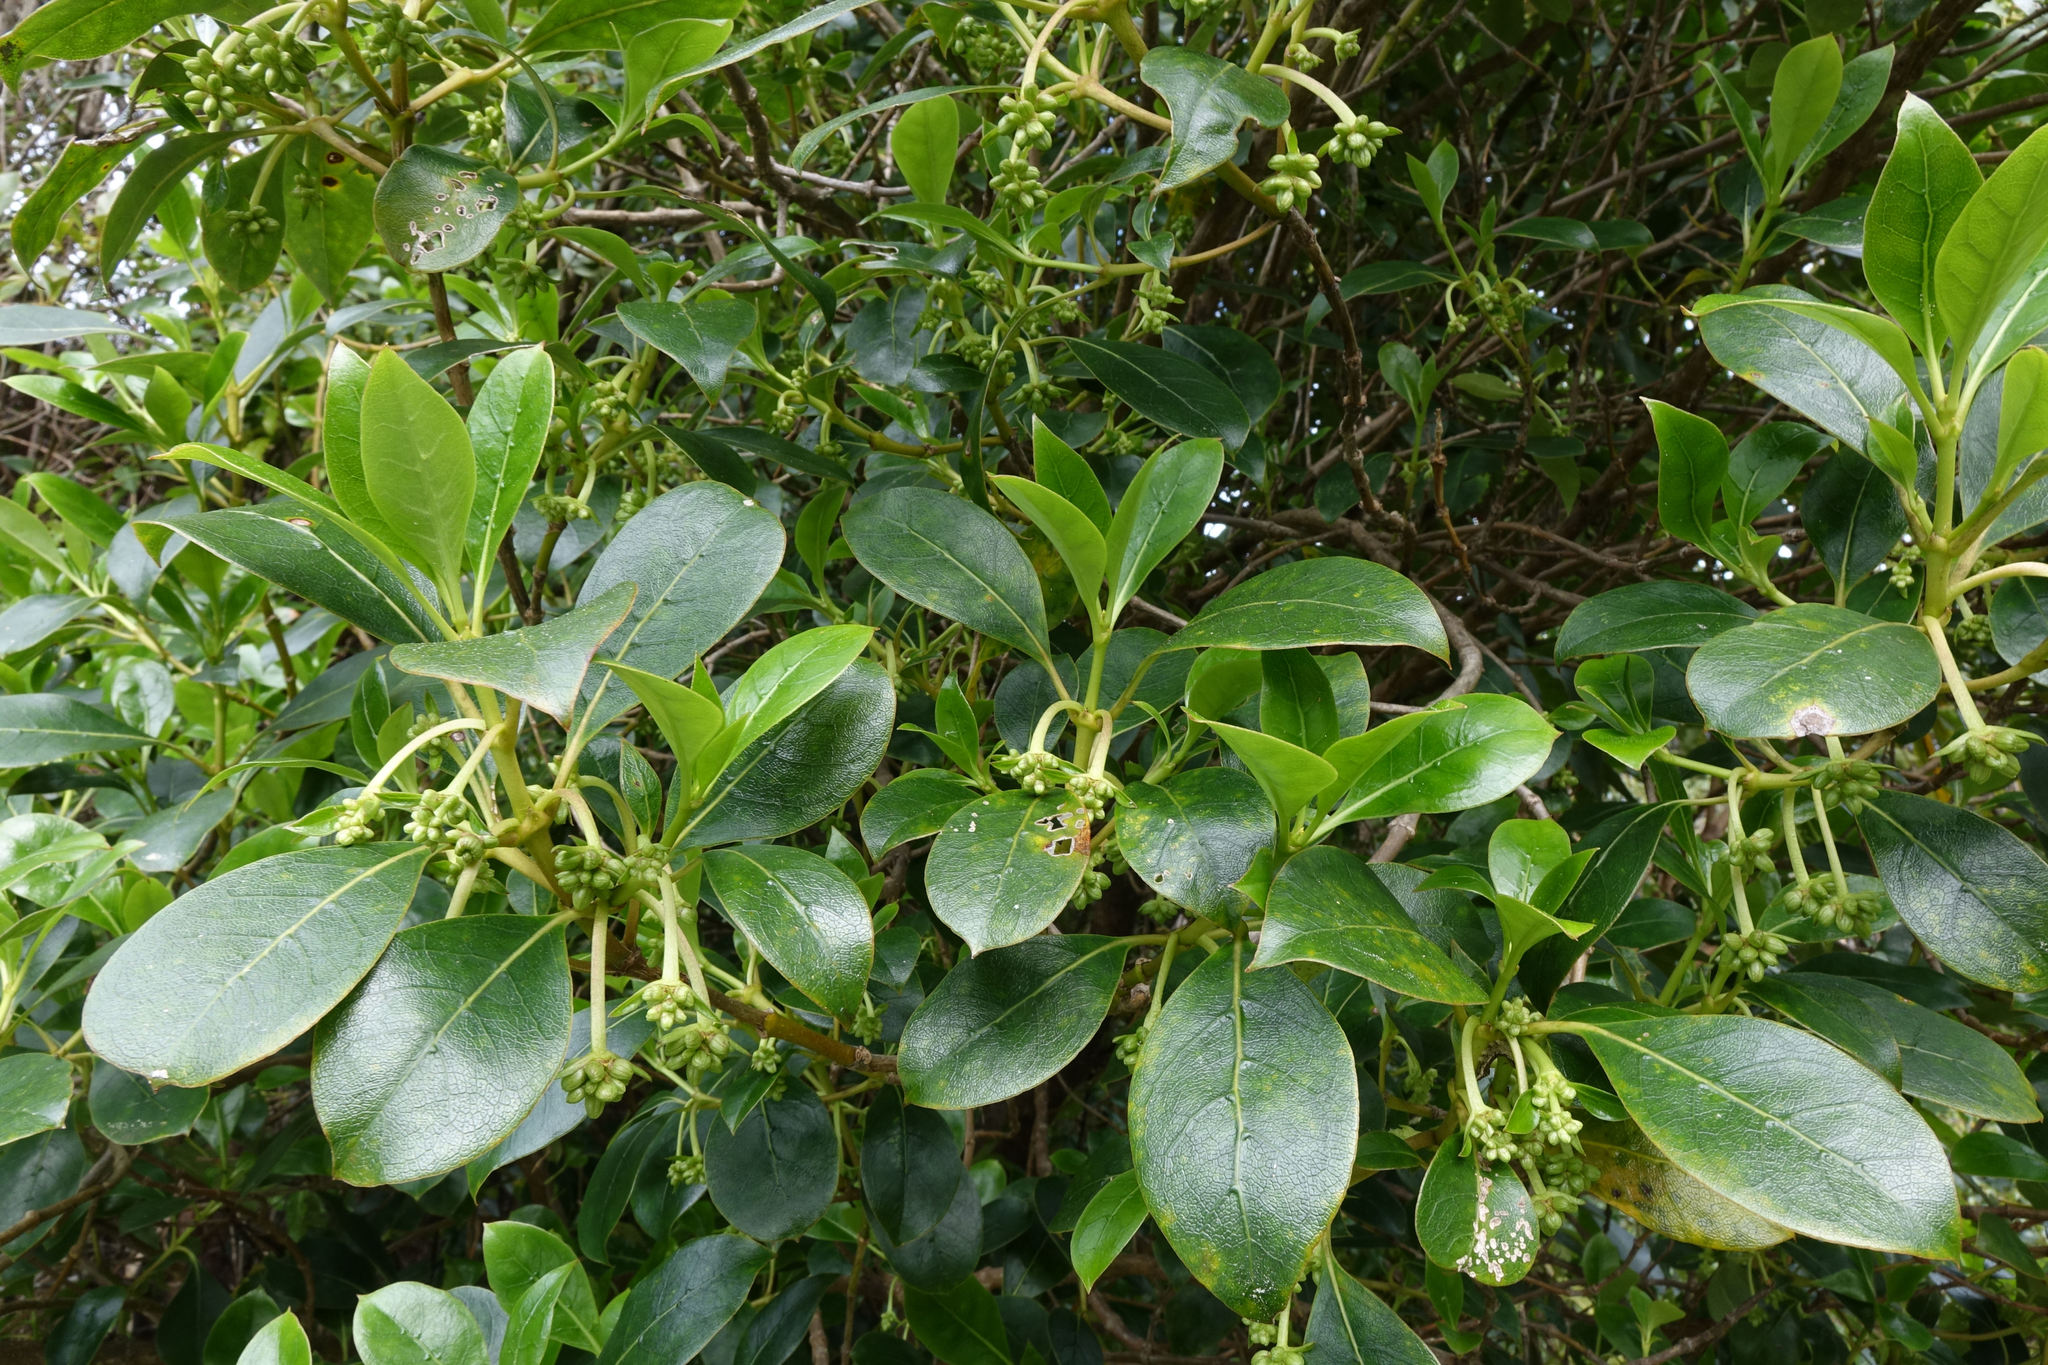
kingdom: Plantae
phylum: Tracheophyta
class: Magnoliopsida
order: Gentianales
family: Rubiaceae
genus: Coprosma
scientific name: Coprosma lucida
